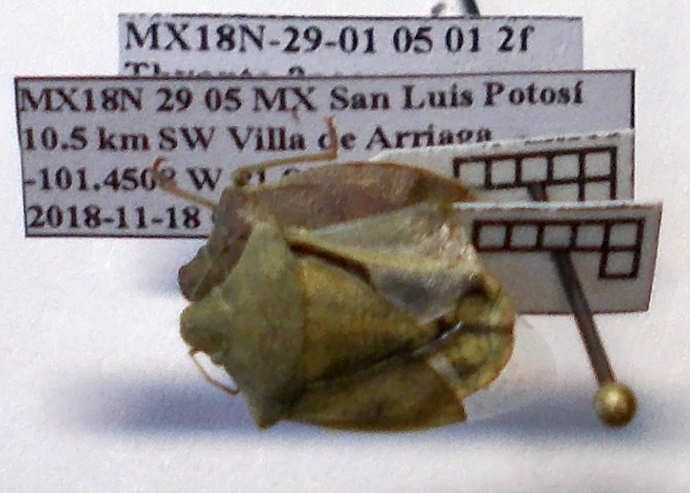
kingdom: Animalia
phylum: Arthropoda
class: Insecta
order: Hemiptera
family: Pentatomidae
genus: Thyanta
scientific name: Thyanta custator
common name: Stink bug
